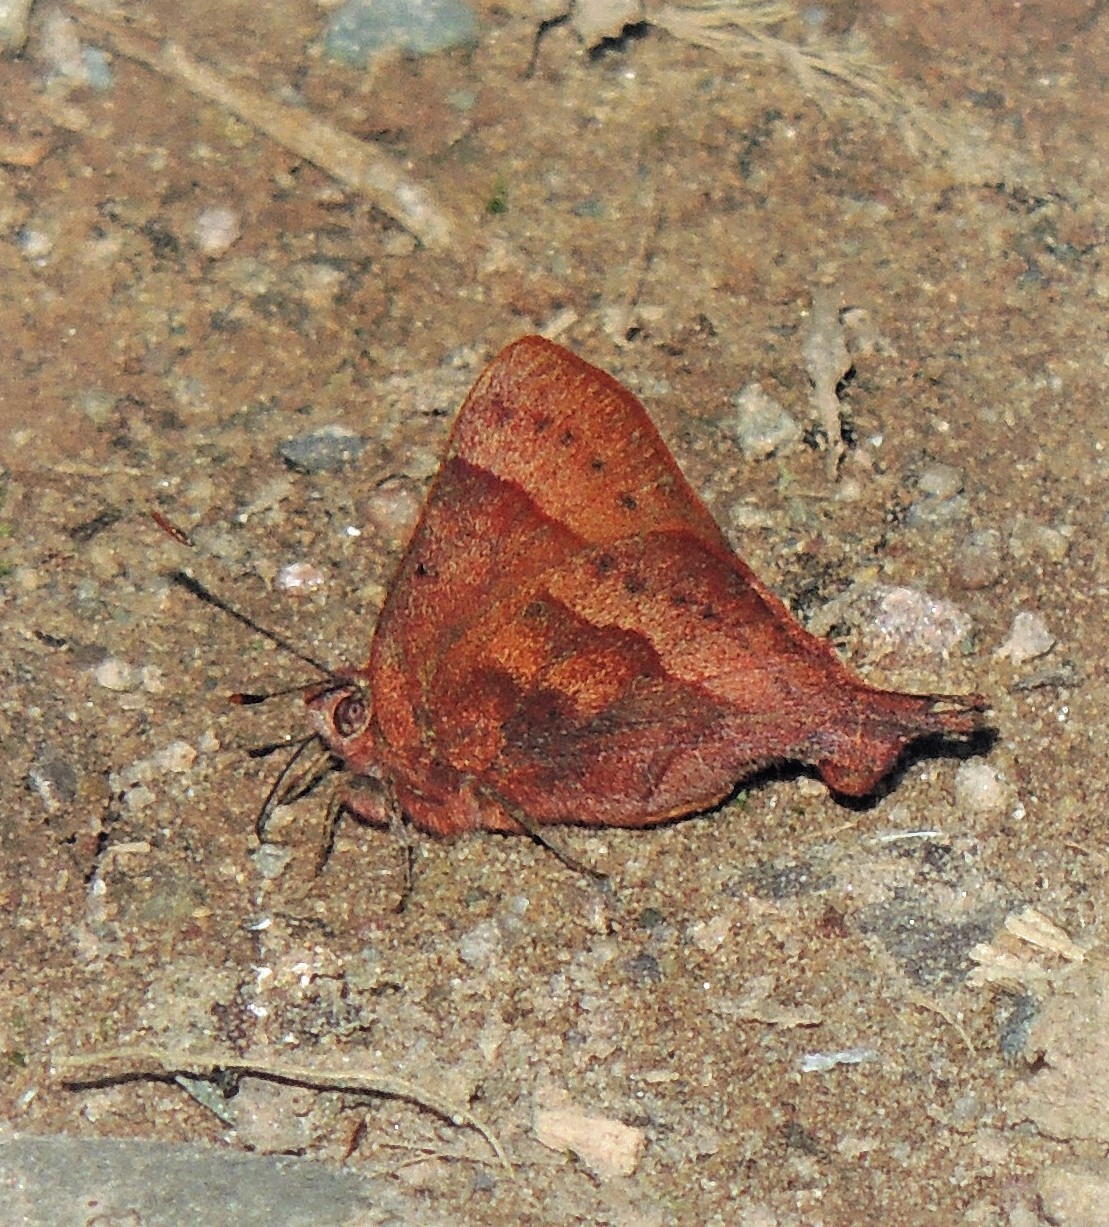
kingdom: Animalia
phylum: Arthropoda
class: Insecta
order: Lepidoptera
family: Lycaenidae
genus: Penaincisalia
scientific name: Penaincisalia
